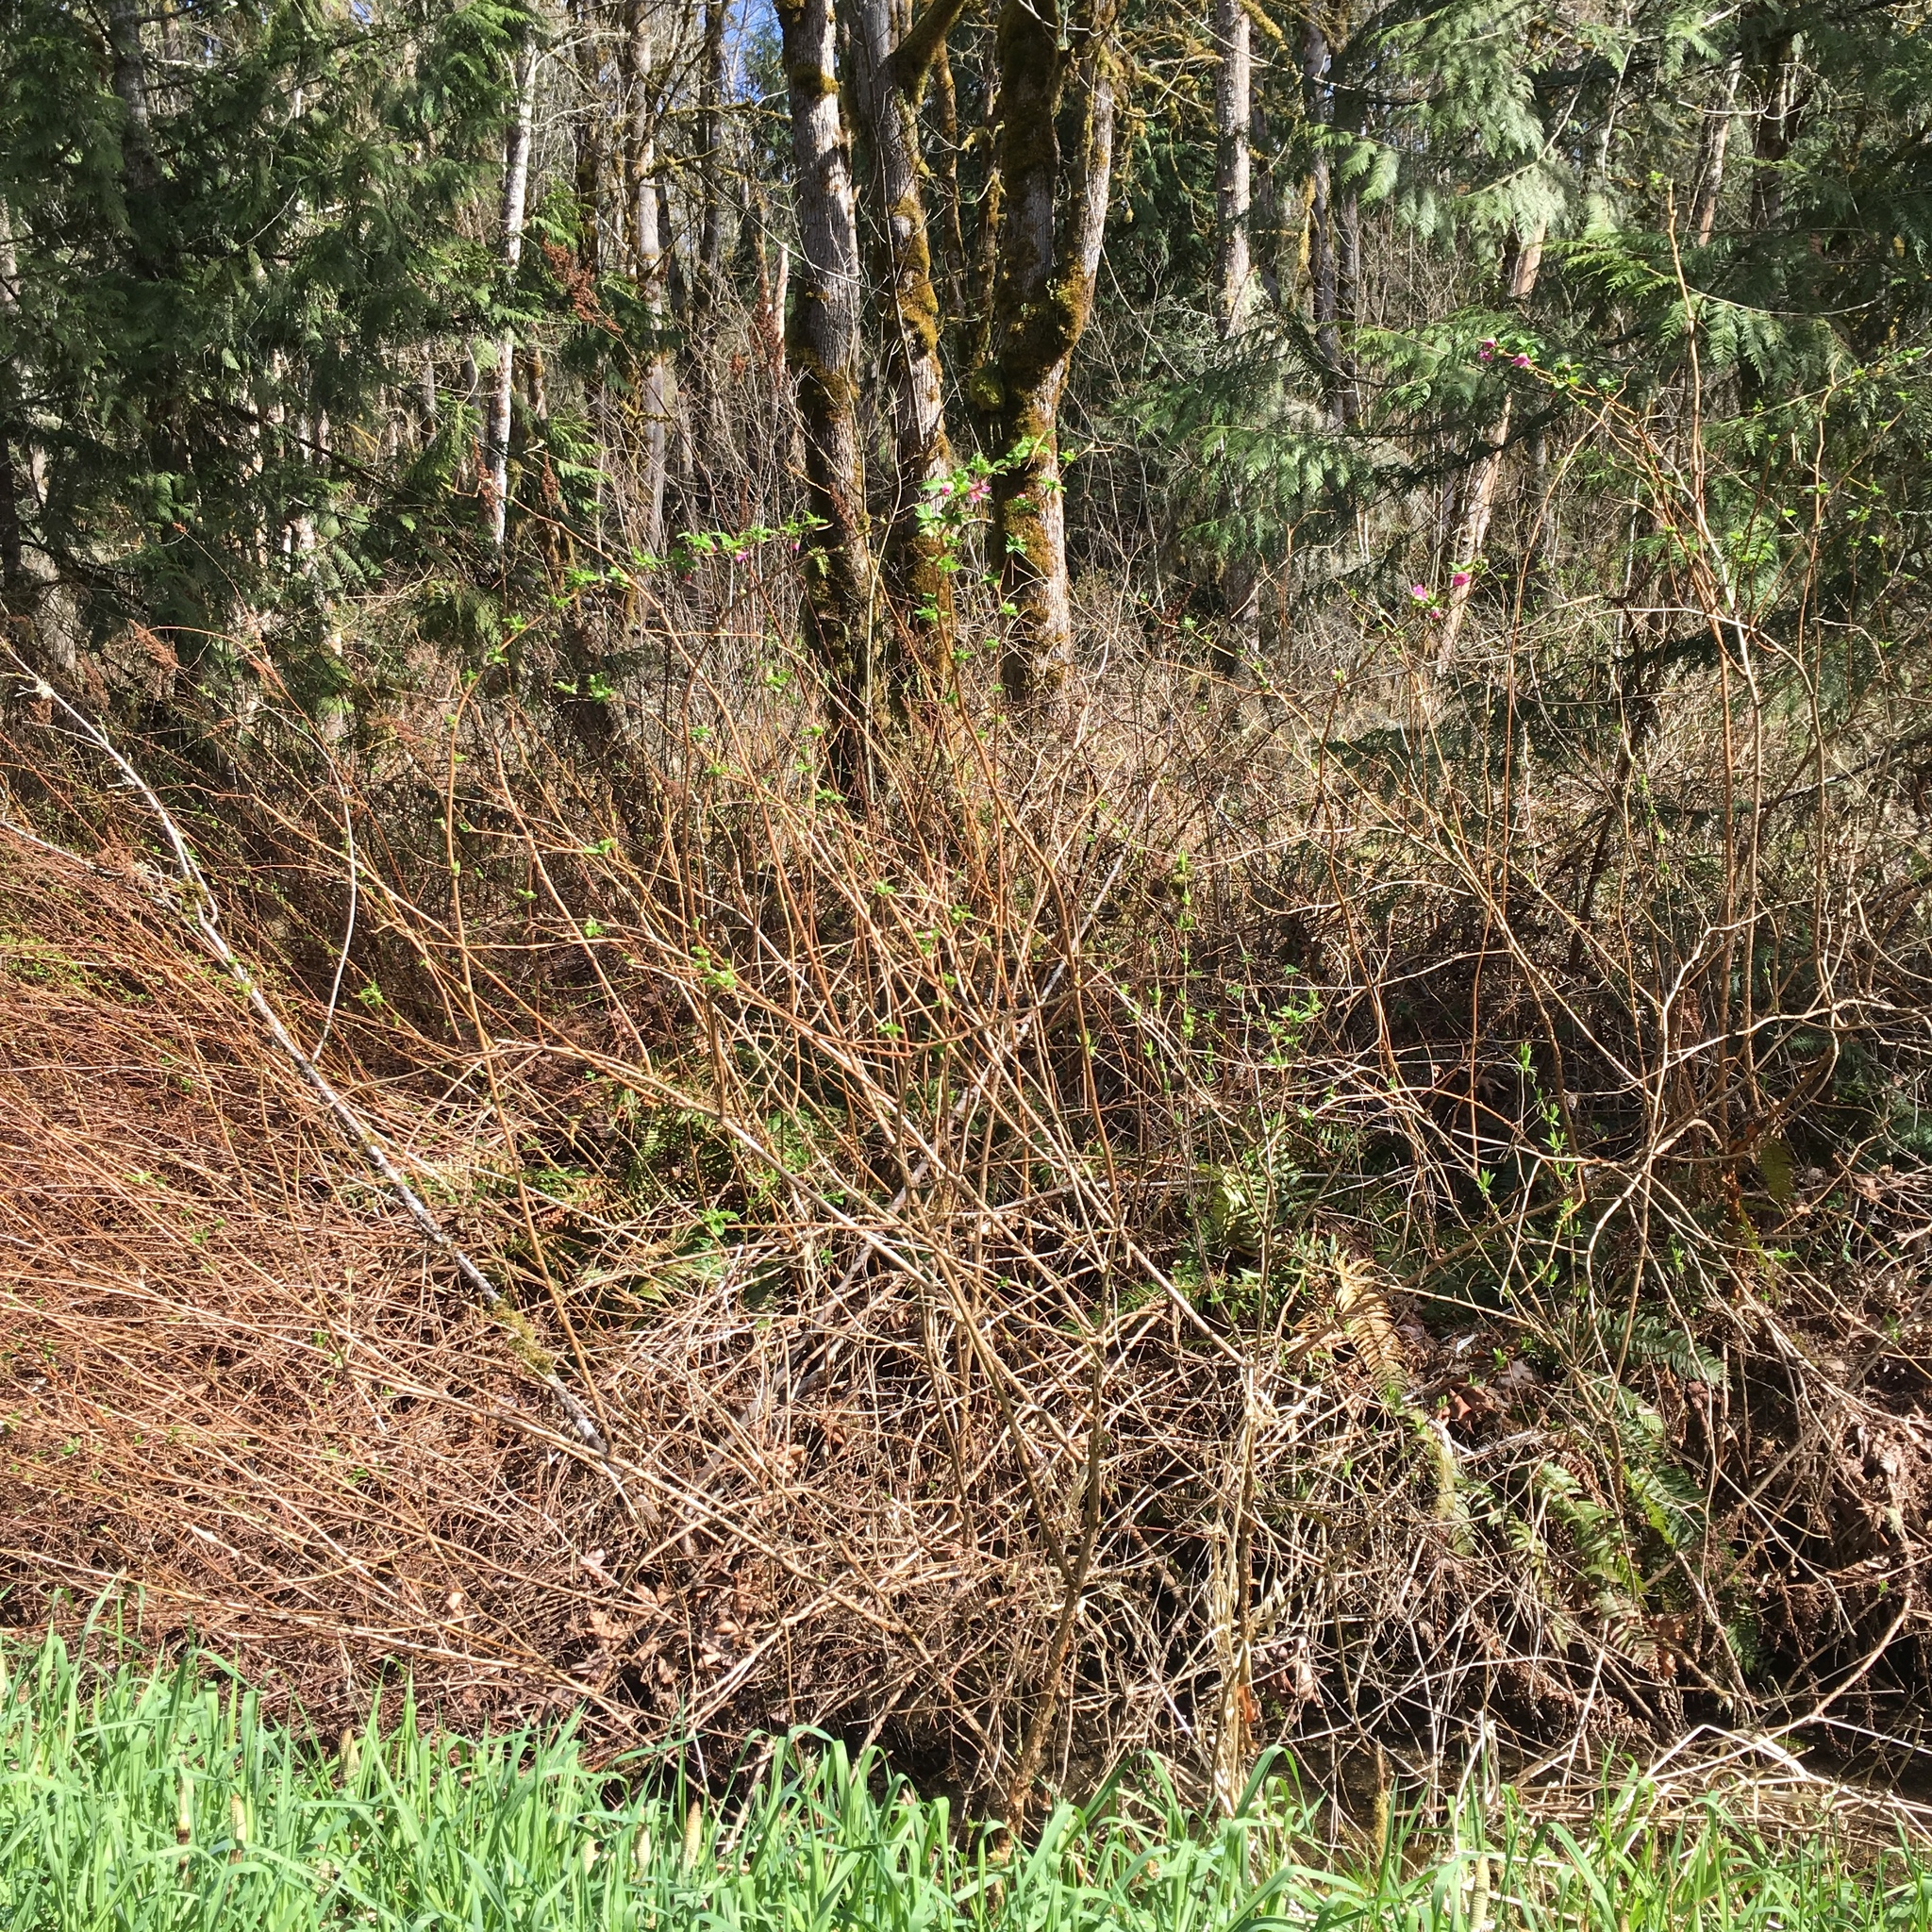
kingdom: Plantae
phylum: Tracheophyta
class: Magnoliopsida
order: Rosales
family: Rosaceae
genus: Rubus
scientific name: Rubus spectabilis
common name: Salmonberry
